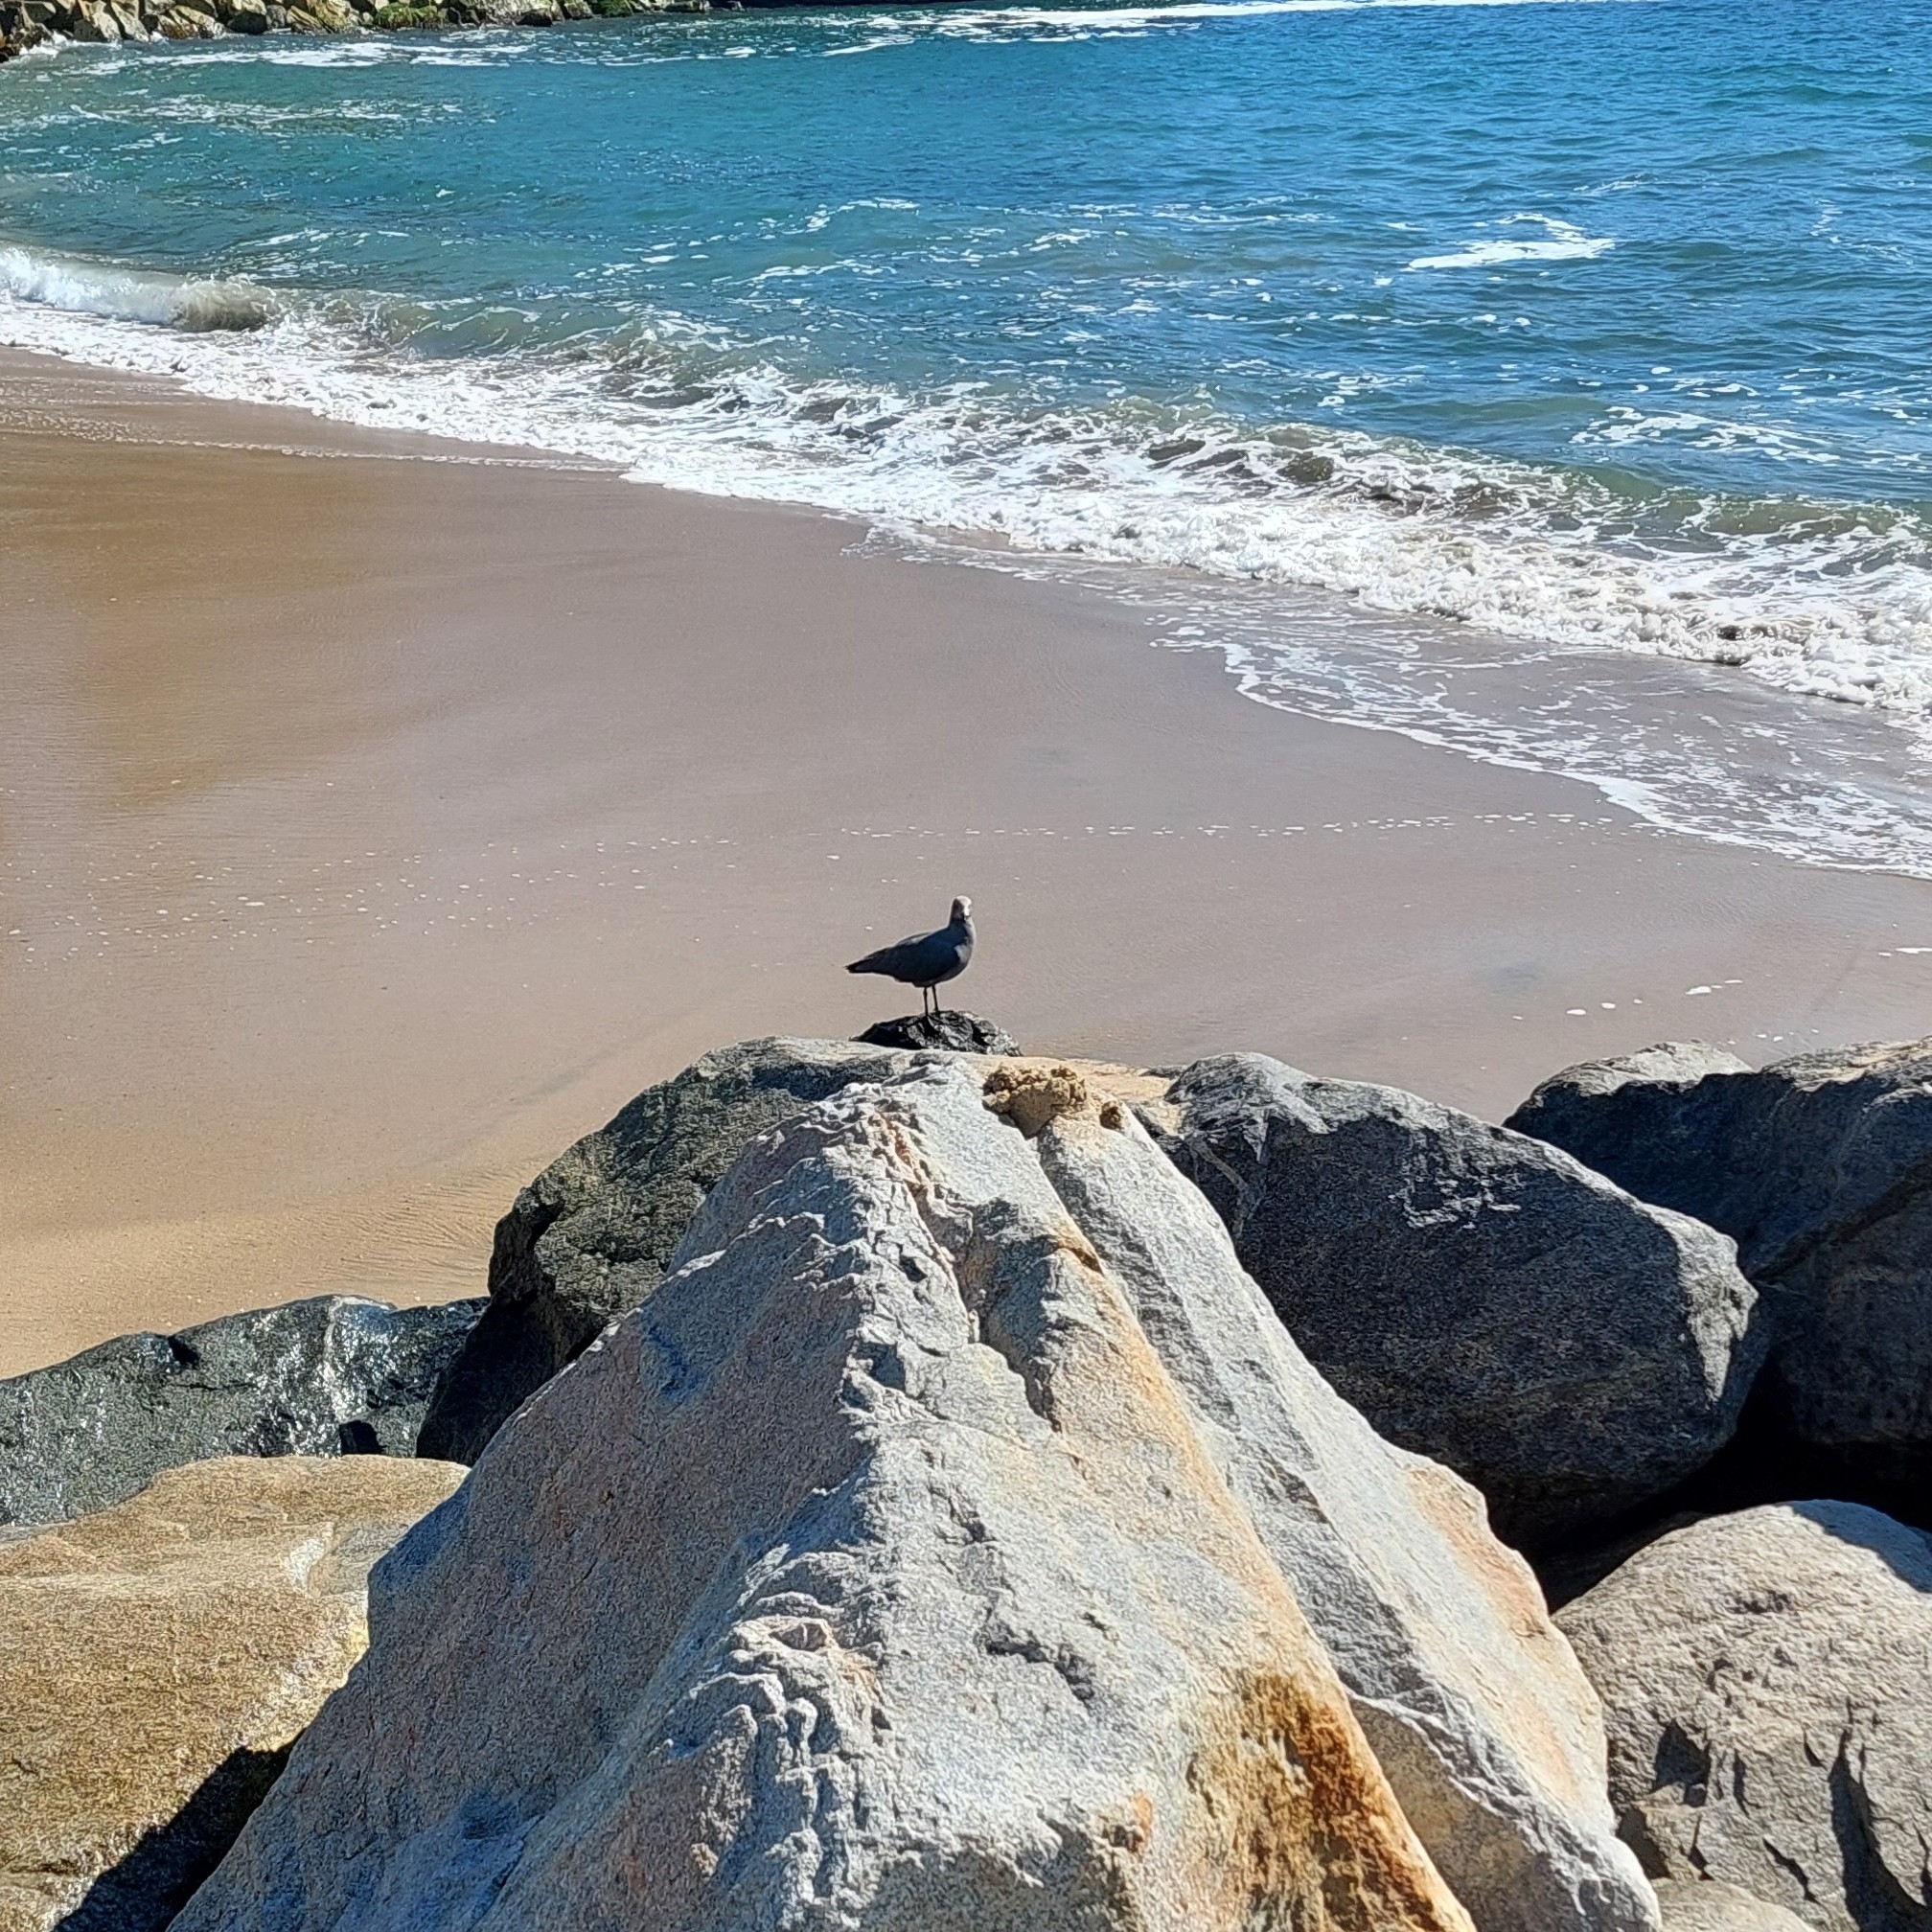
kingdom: Animalia
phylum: Chordata
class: Aves
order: Charadriiformes
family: Laridae
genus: Leucophaeus
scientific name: Leucophaeus modestus
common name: Gray gull
